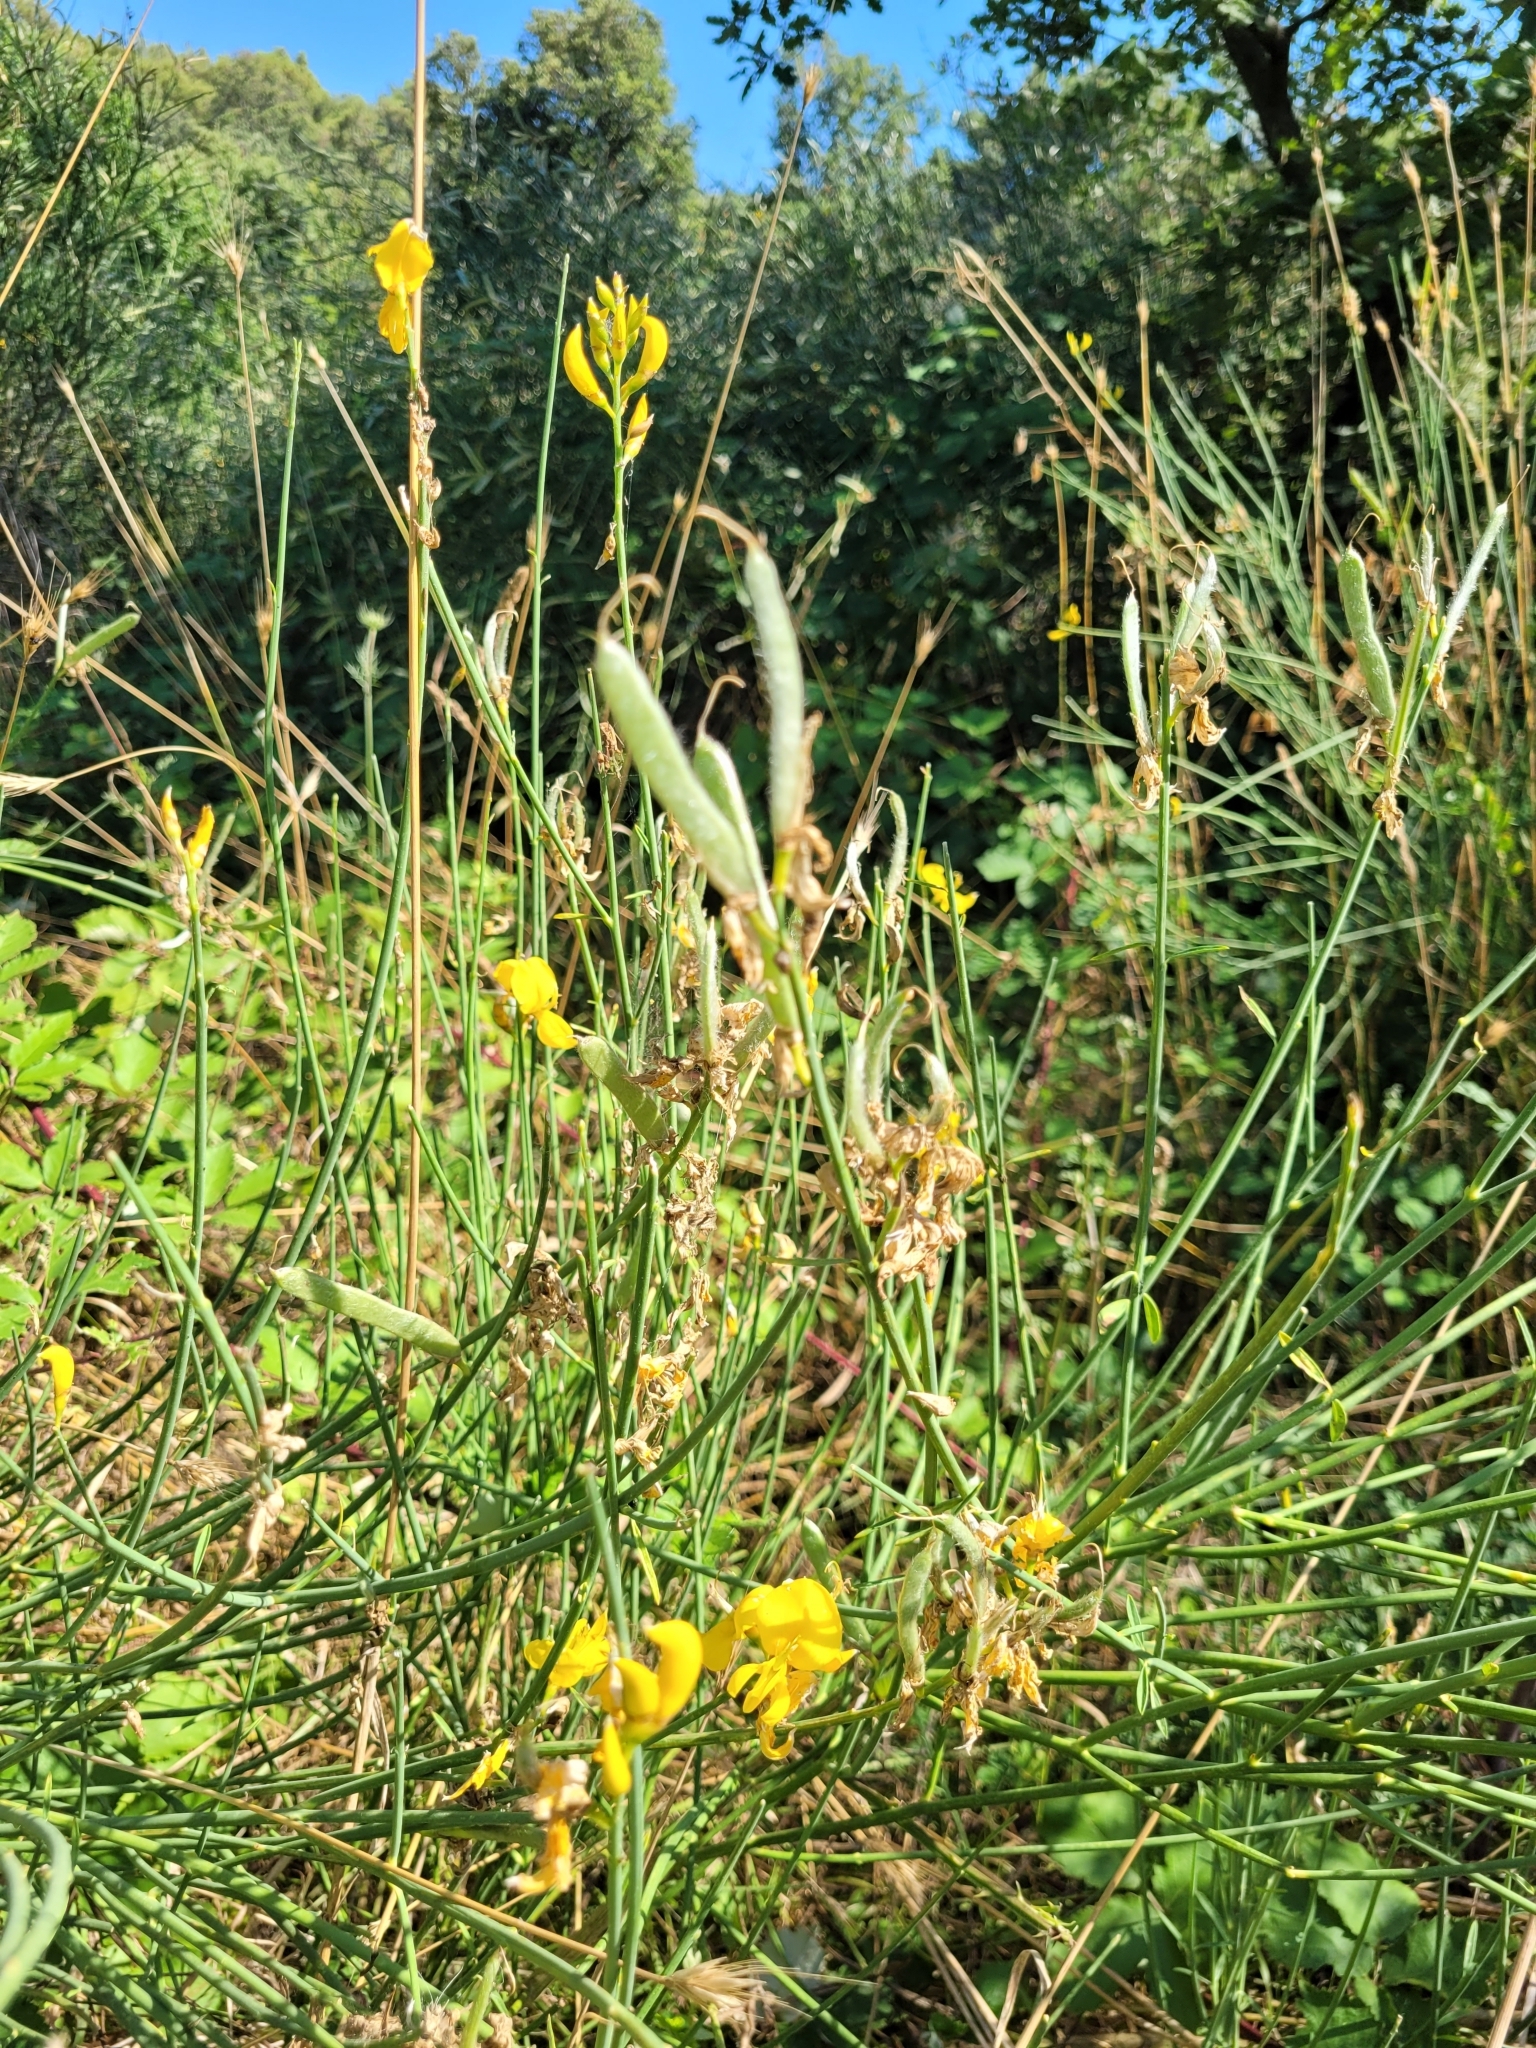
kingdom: Plantae
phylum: Tracheophyta
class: Magnoliopsida
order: Fabales
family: Fabaceae
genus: Spartium
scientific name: Spartium junceum
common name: Spanish broom
